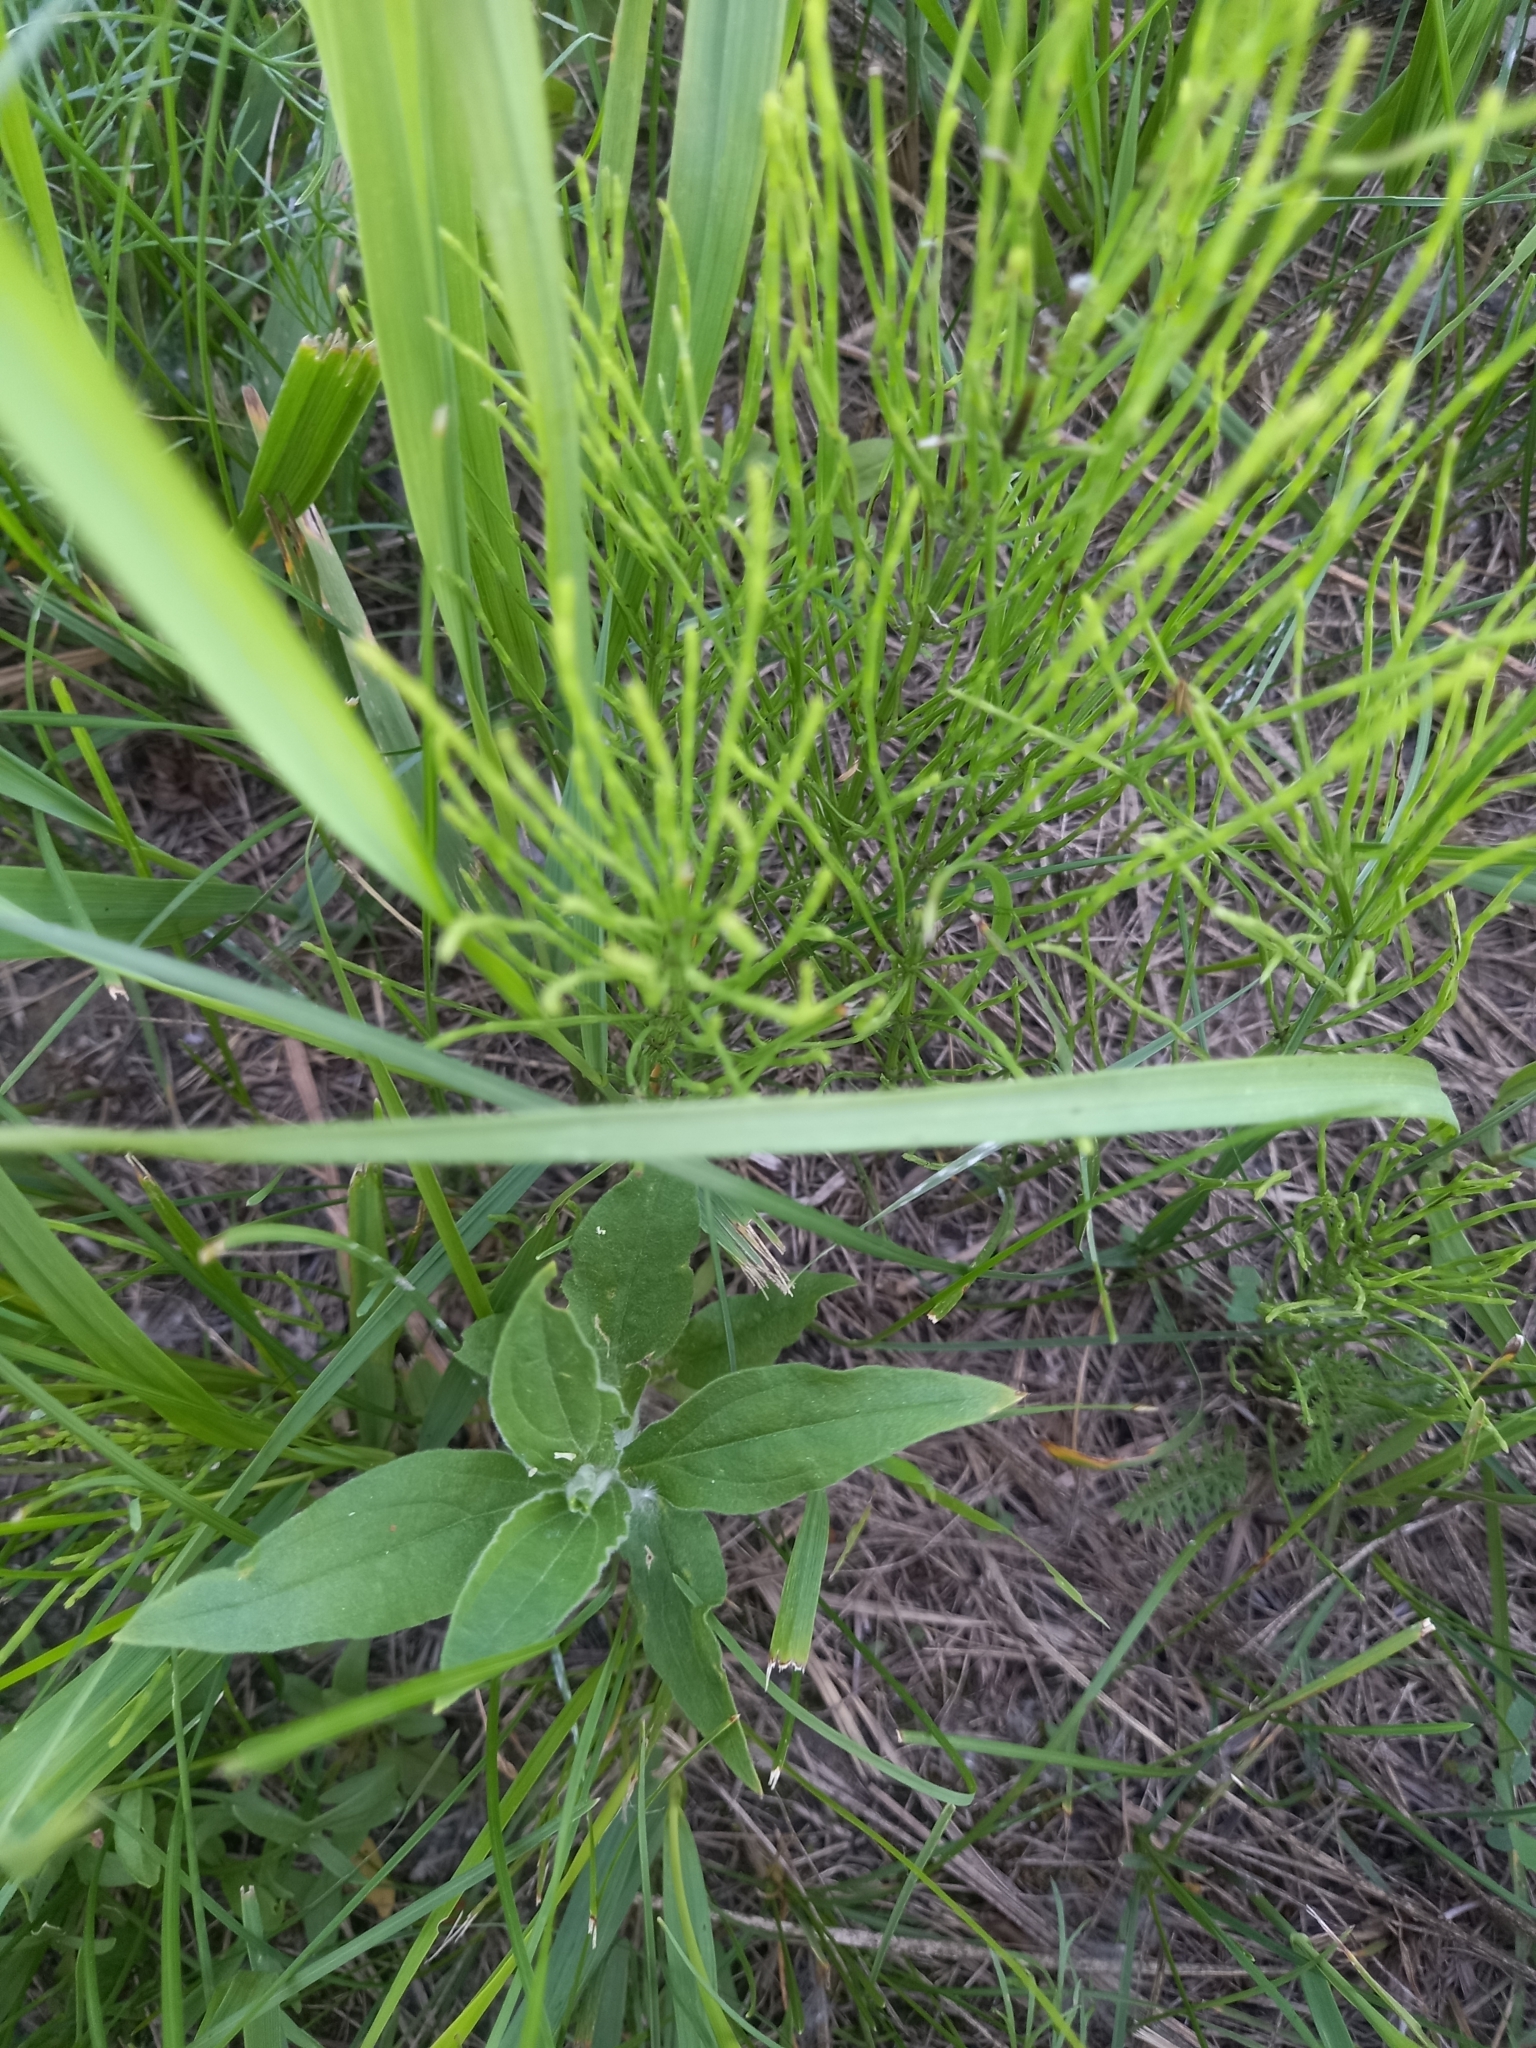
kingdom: Plantae
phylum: Tracheophyta
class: Polypodiopsida
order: Equisetales
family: Equisetaceae
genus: Equisetum
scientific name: Equisetum arvense
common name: Field horsetail
